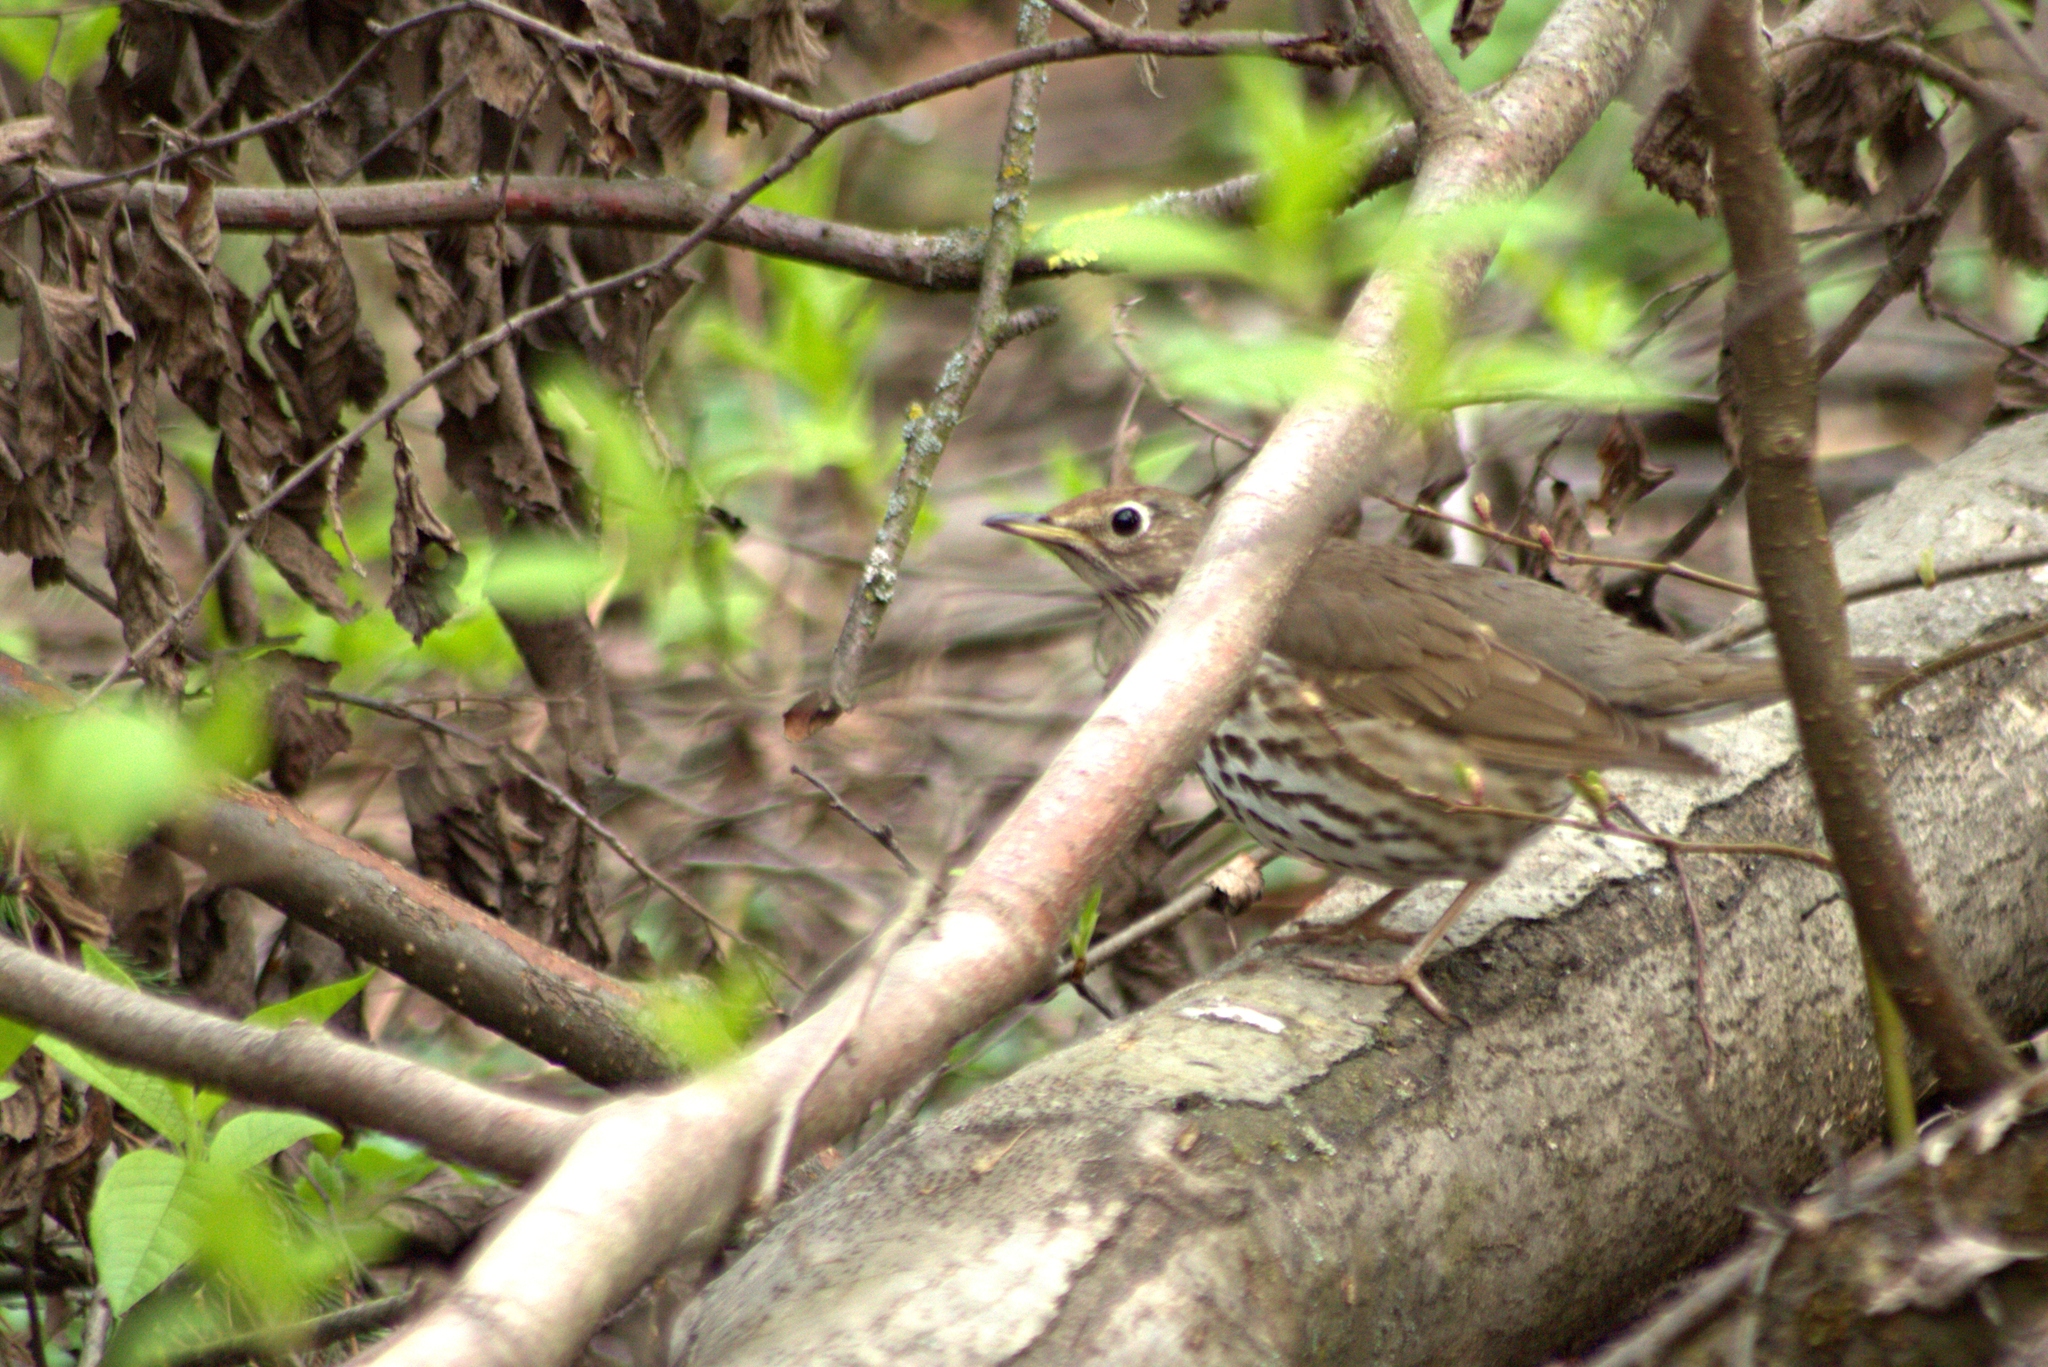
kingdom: Animalia
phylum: Chordata
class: Aves
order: Passeriformes
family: Turdidae
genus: Turdus
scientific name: Turdus philomelos
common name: Song thrush
